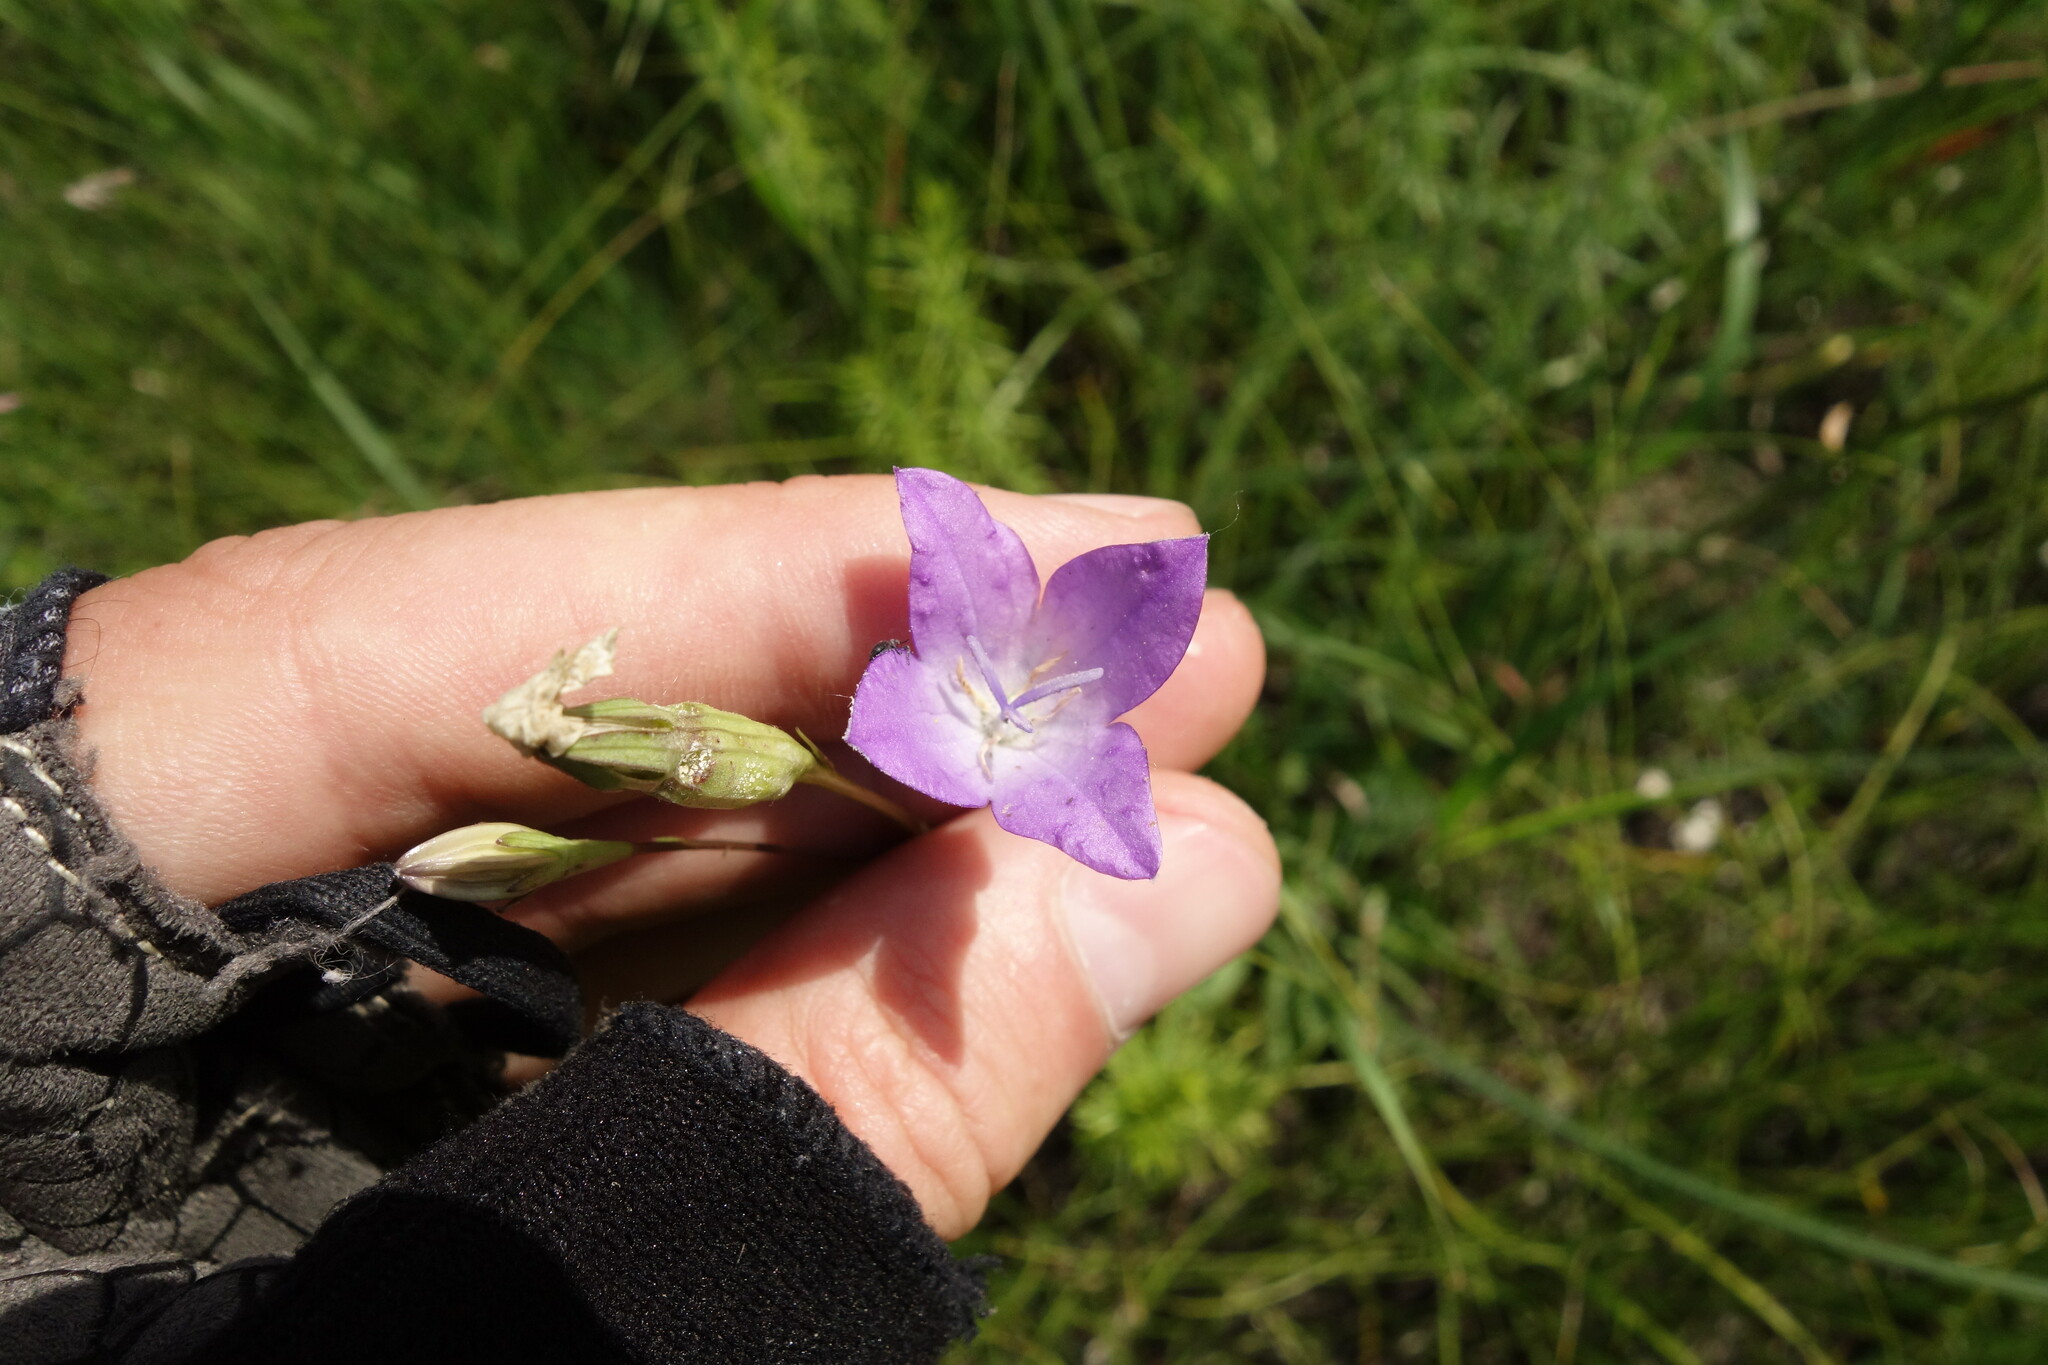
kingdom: Plantae
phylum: Tracheophyta
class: Magnoliopsida
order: Asterales
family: Campanulaceae
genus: Campanula
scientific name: Campanula stevenii
